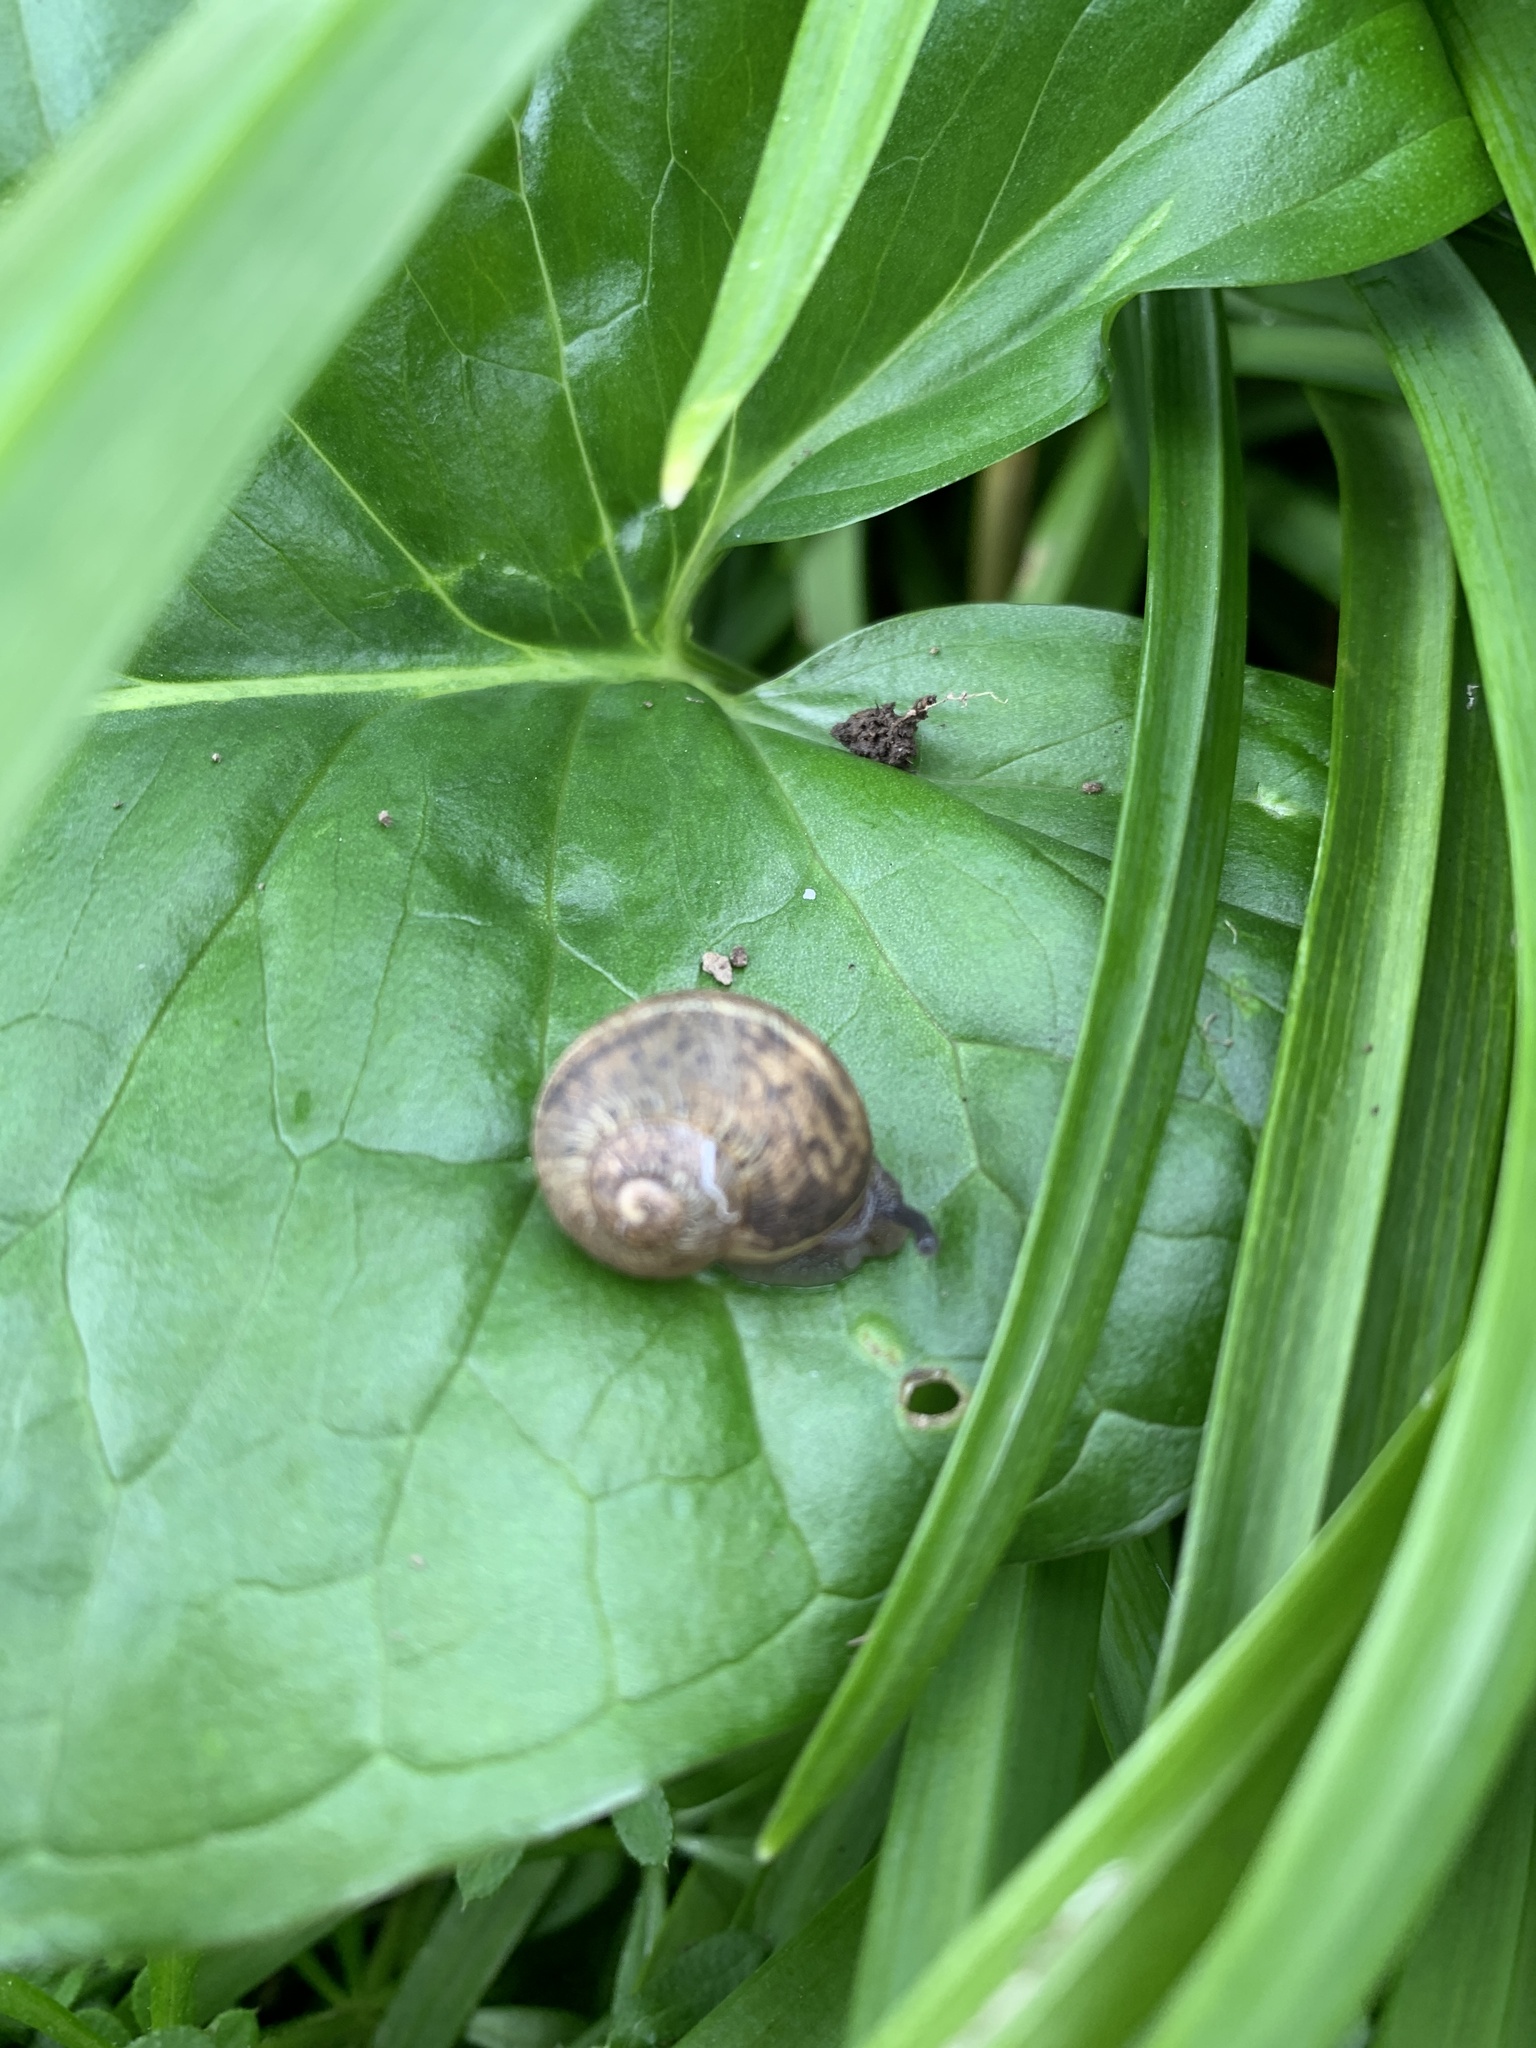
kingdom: Animalia
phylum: Mollusca
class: Gastropoda
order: Stylommatophora
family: Helicidae
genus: Cornu
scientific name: Cornu aspersum
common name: Brown garden snail
